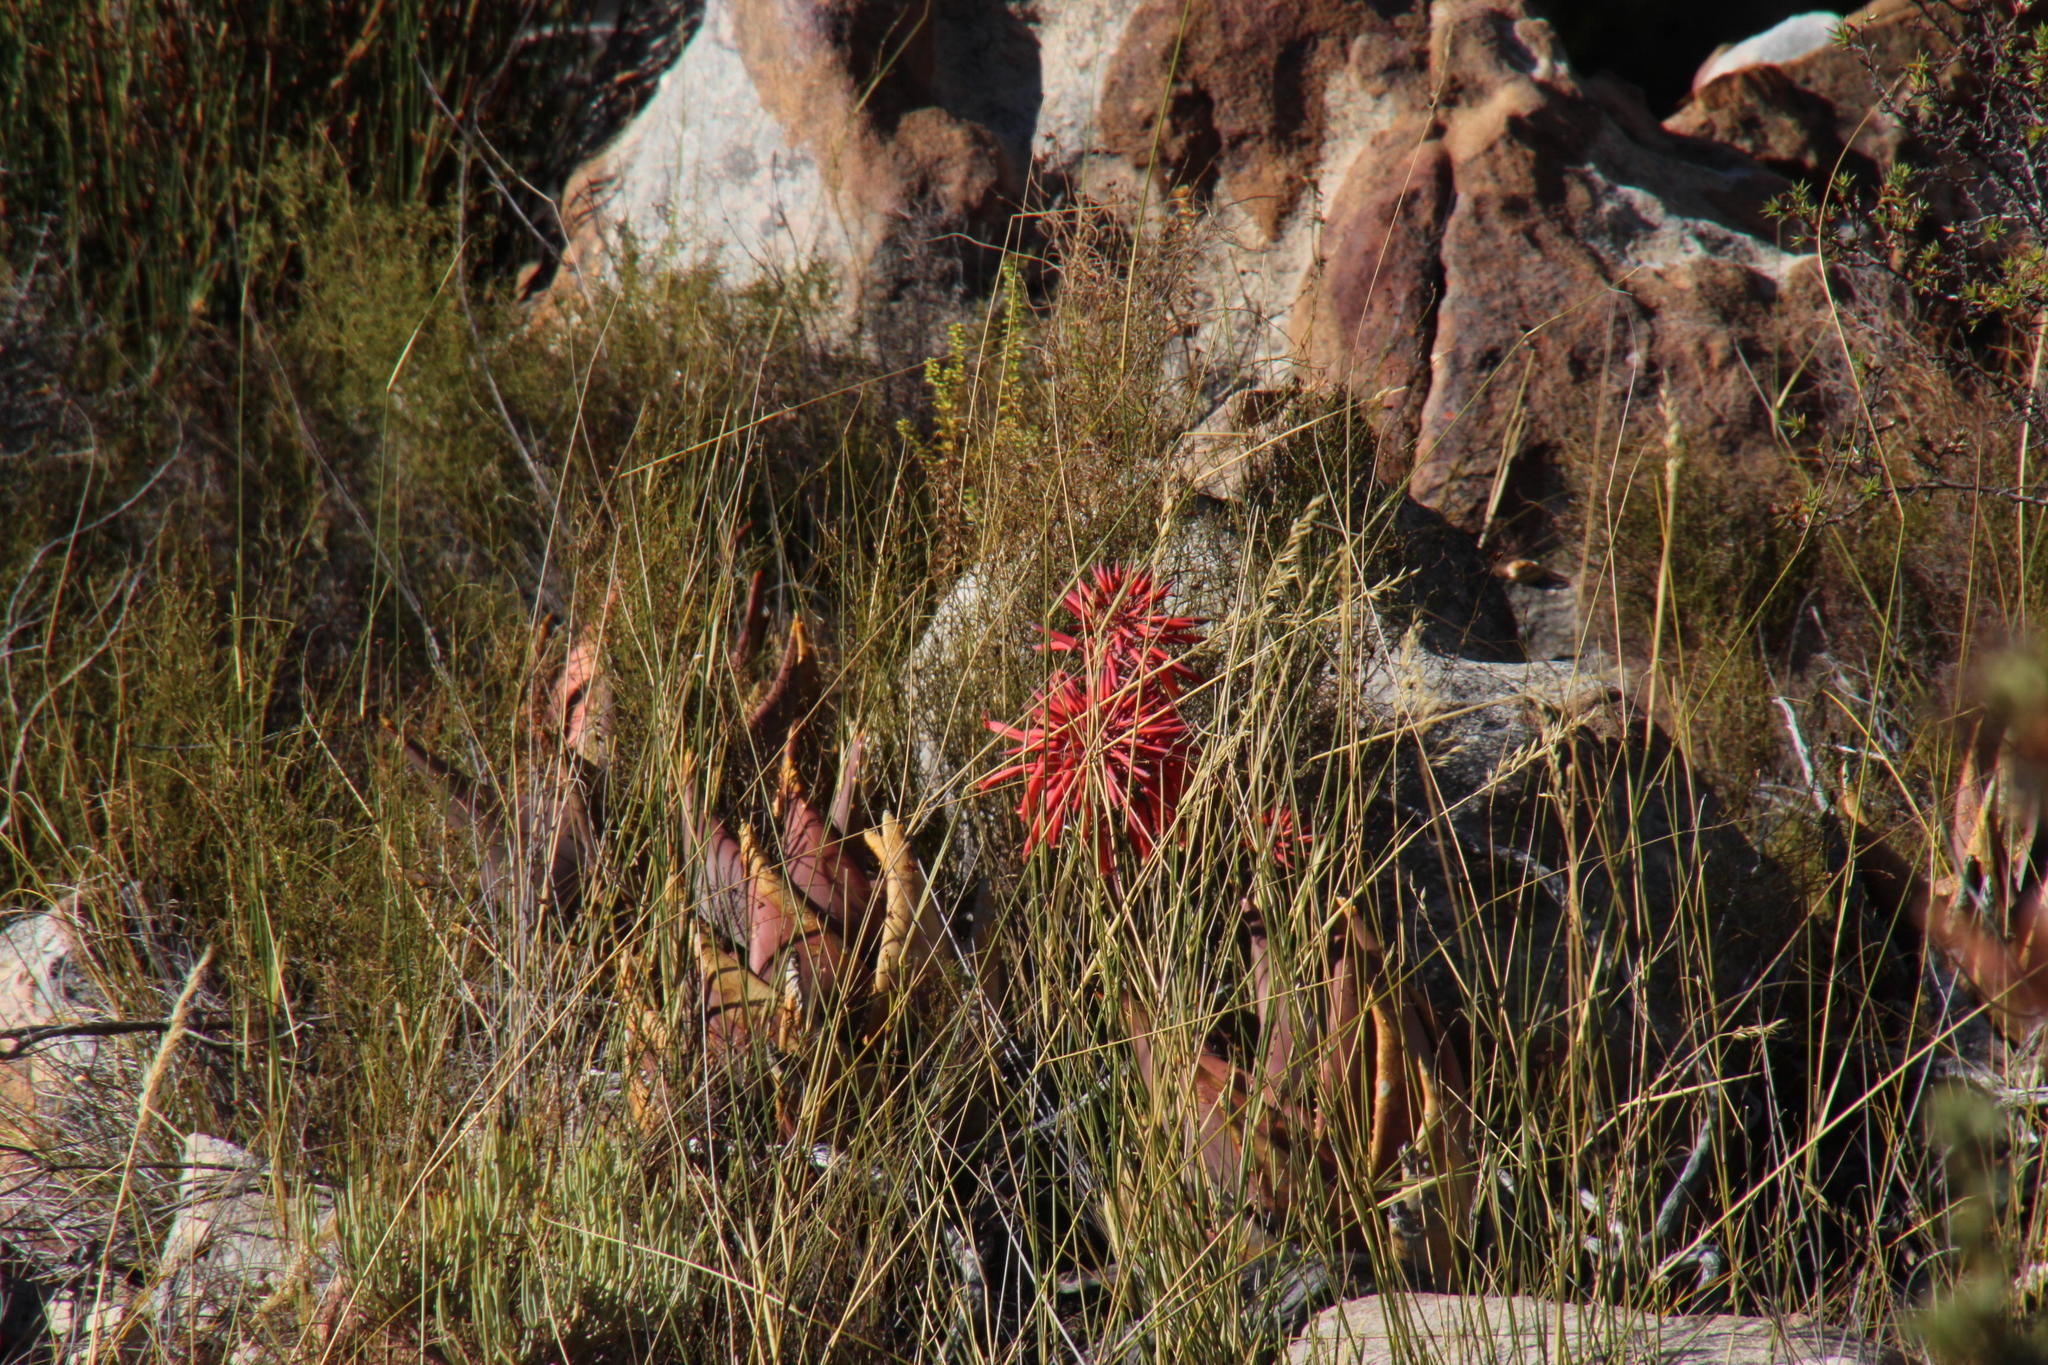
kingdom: Plantae
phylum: Tracheophyta
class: Liliopsida
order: Asparagales
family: Asphodelaceae
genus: Aloe
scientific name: Aloe perfoliata
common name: Mitra aloe
